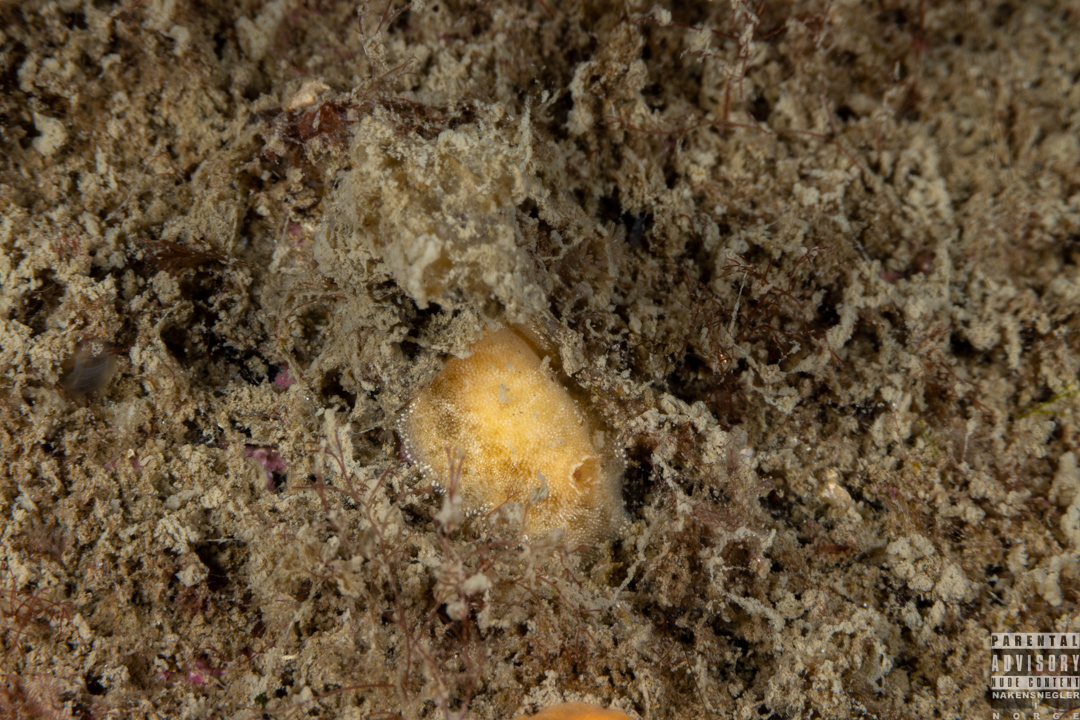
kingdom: Animalia
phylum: Mollusca
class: Gastropoda
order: Nudibranchia
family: Discodorididae
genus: Jorunna
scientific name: Jorunna tomentosa
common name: Grey sea slug
